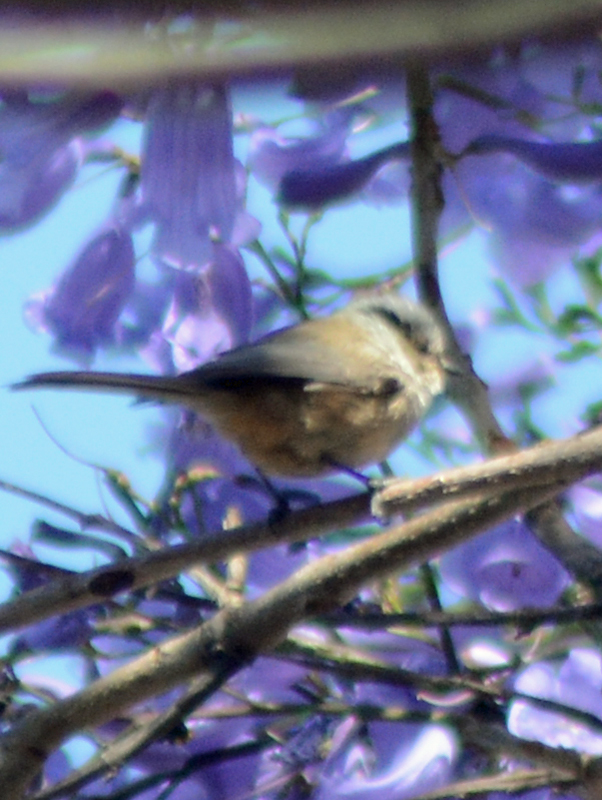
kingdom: Animalia
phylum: Chordata
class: Aves
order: Passeriformes
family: Aegithalidae
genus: Psaltriparus
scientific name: Psaltriparus minimus
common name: American bushtit
